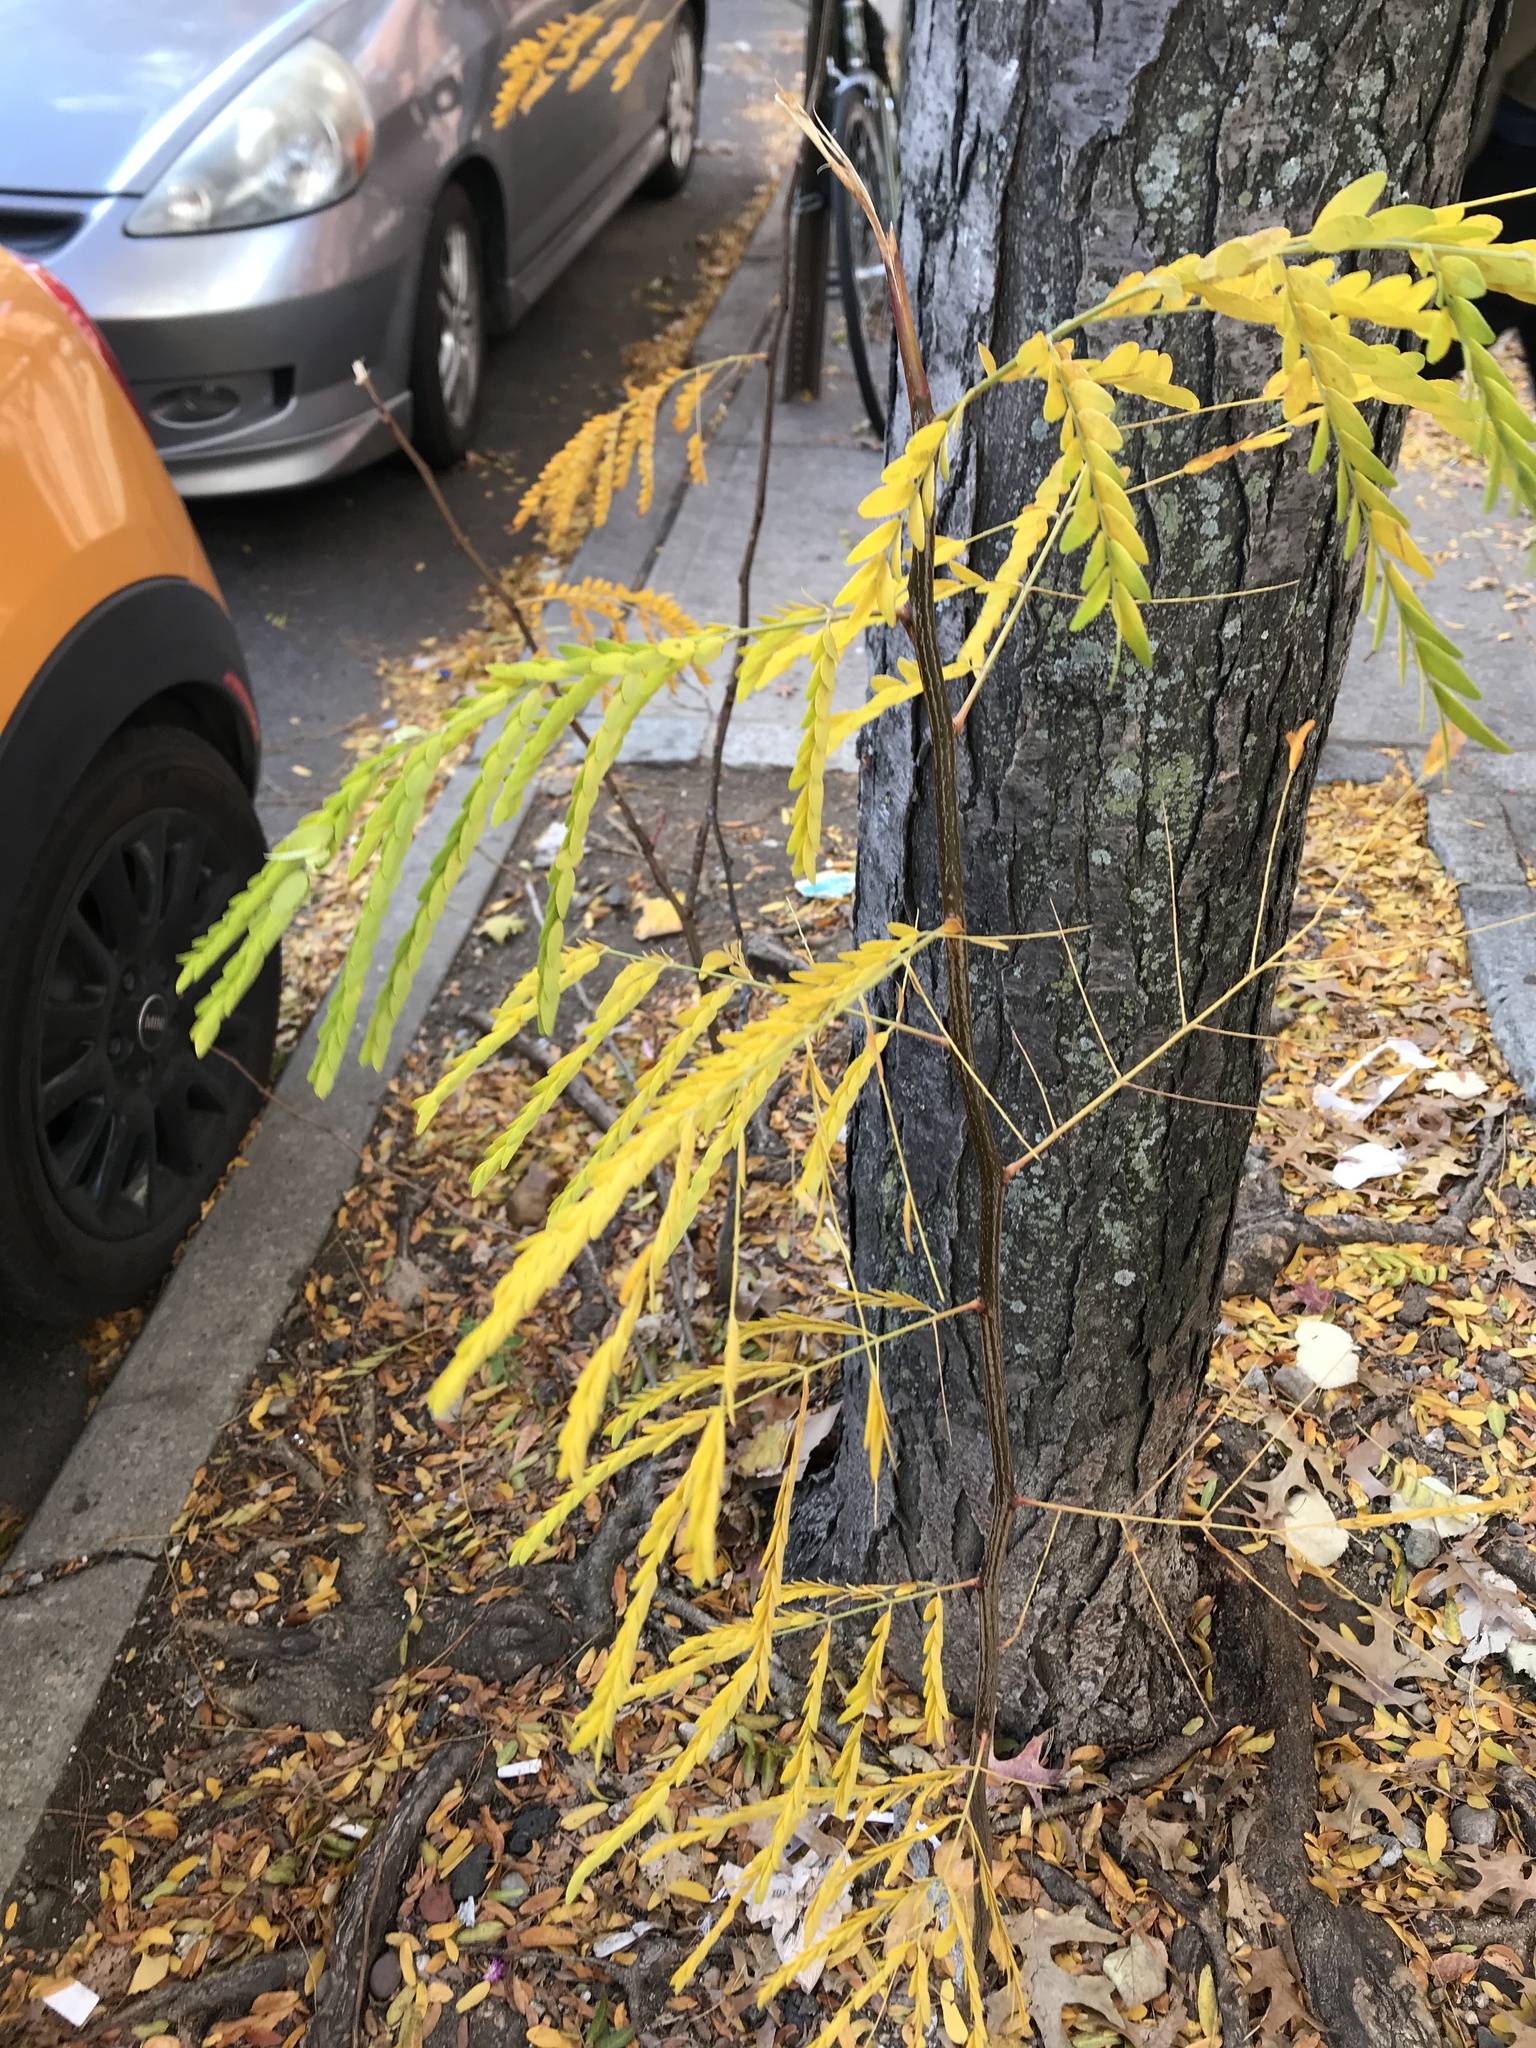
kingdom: Plantae
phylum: Tracheophyta
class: Magnoliopsida
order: Fabales
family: Fabaceae
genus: Gleditsia
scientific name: Gleditsia triacanthos
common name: Common honeylocust
